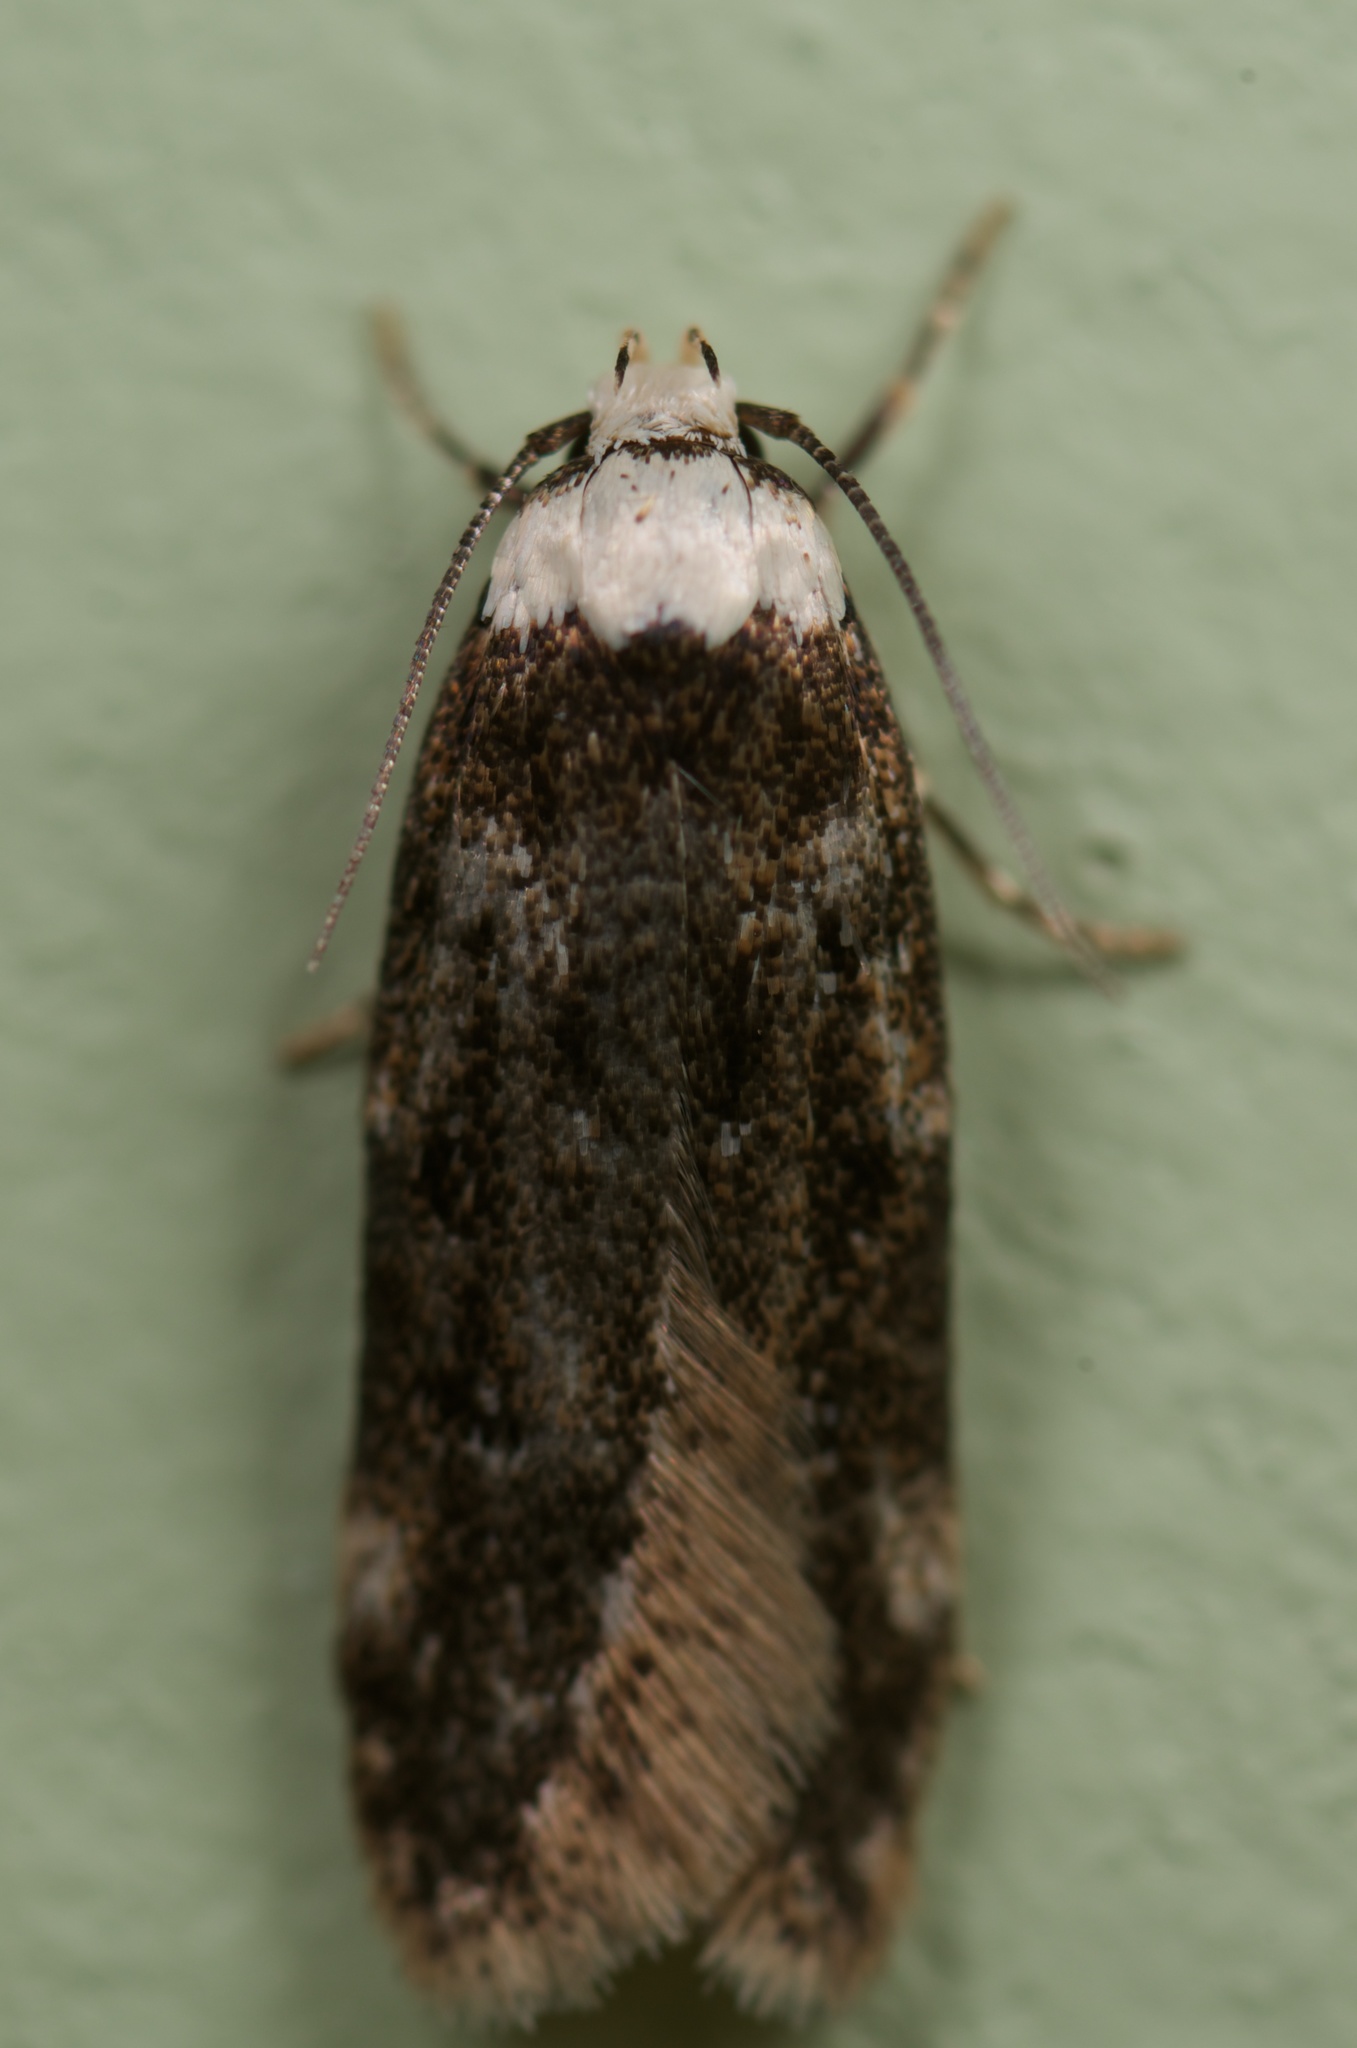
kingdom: Animalia
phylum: Arthropoda
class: Insecta
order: Lepidoptera
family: Oecophoridae
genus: Endrosis
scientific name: Endrosis sarcitrella
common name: White-shouldered house moth
